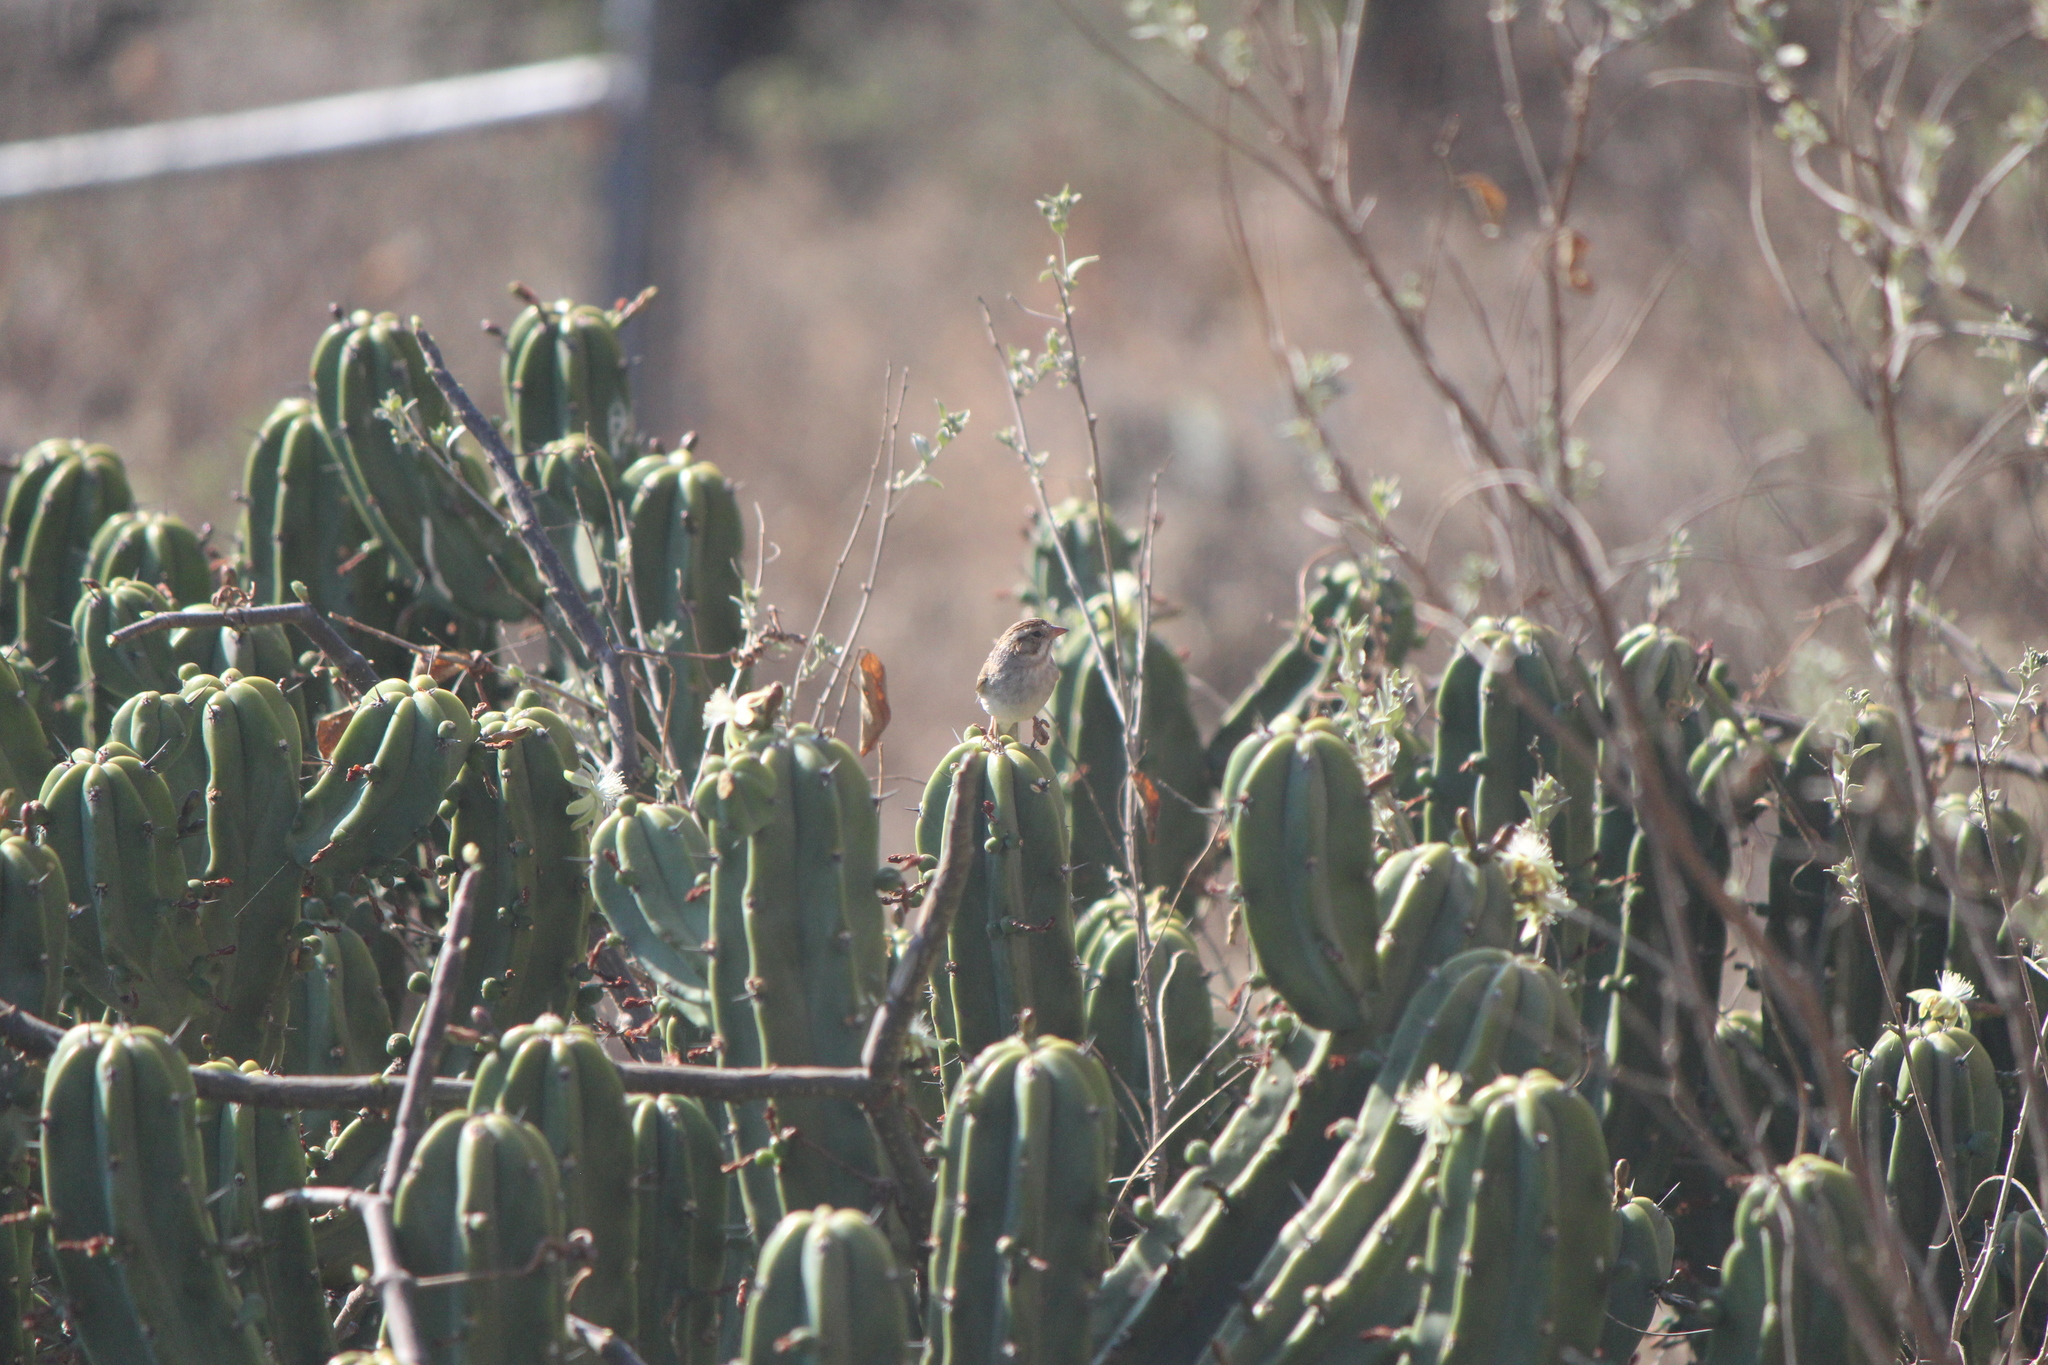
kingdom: Animalia
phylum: Chordata
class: Aves
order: Passeriformes
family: Passerellidae
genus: Spizella
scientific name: Spizella pallida
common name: Clay-colored sparrow
